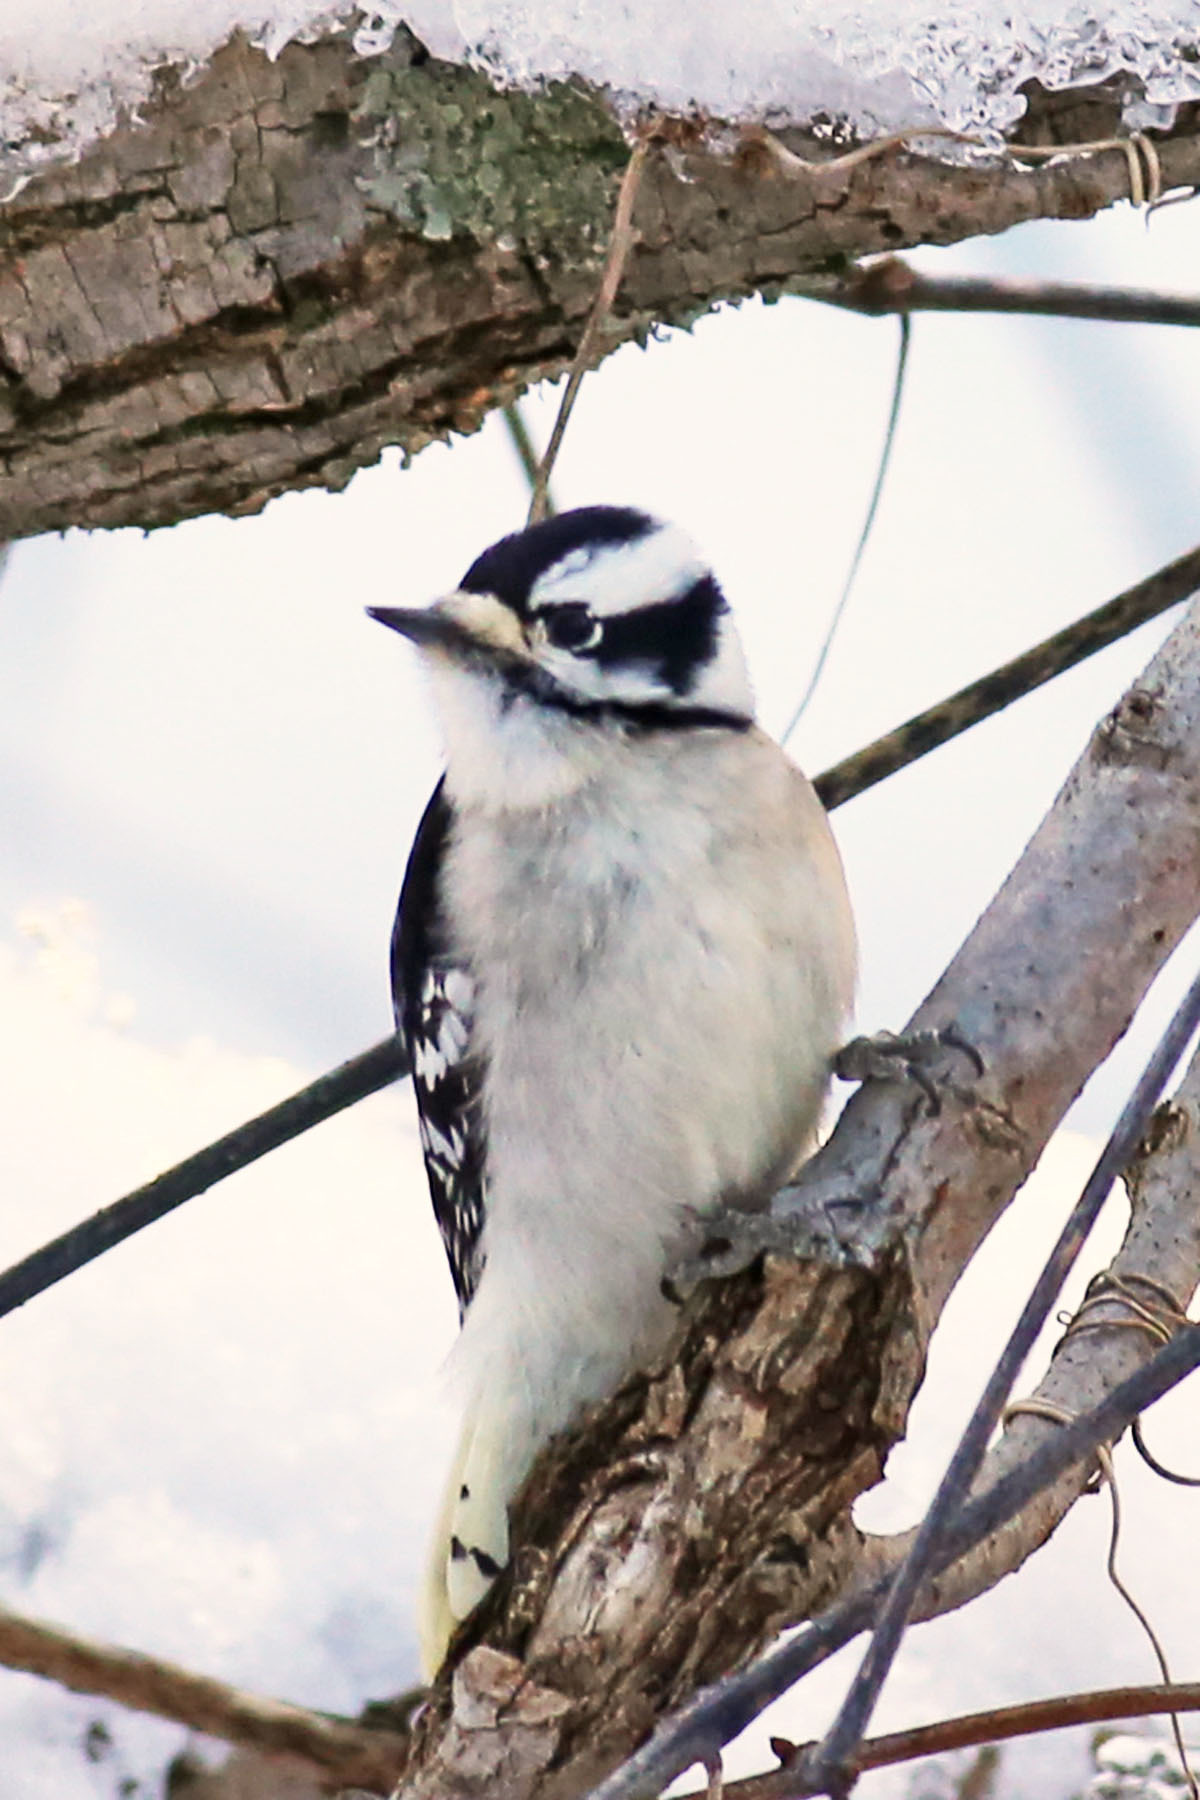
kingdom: Animalia
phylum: Chordata
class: Aves
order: Piciformes
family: Picidae
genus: Dryobates
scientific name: Dryobates pubescens
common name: Downy woodpecker
